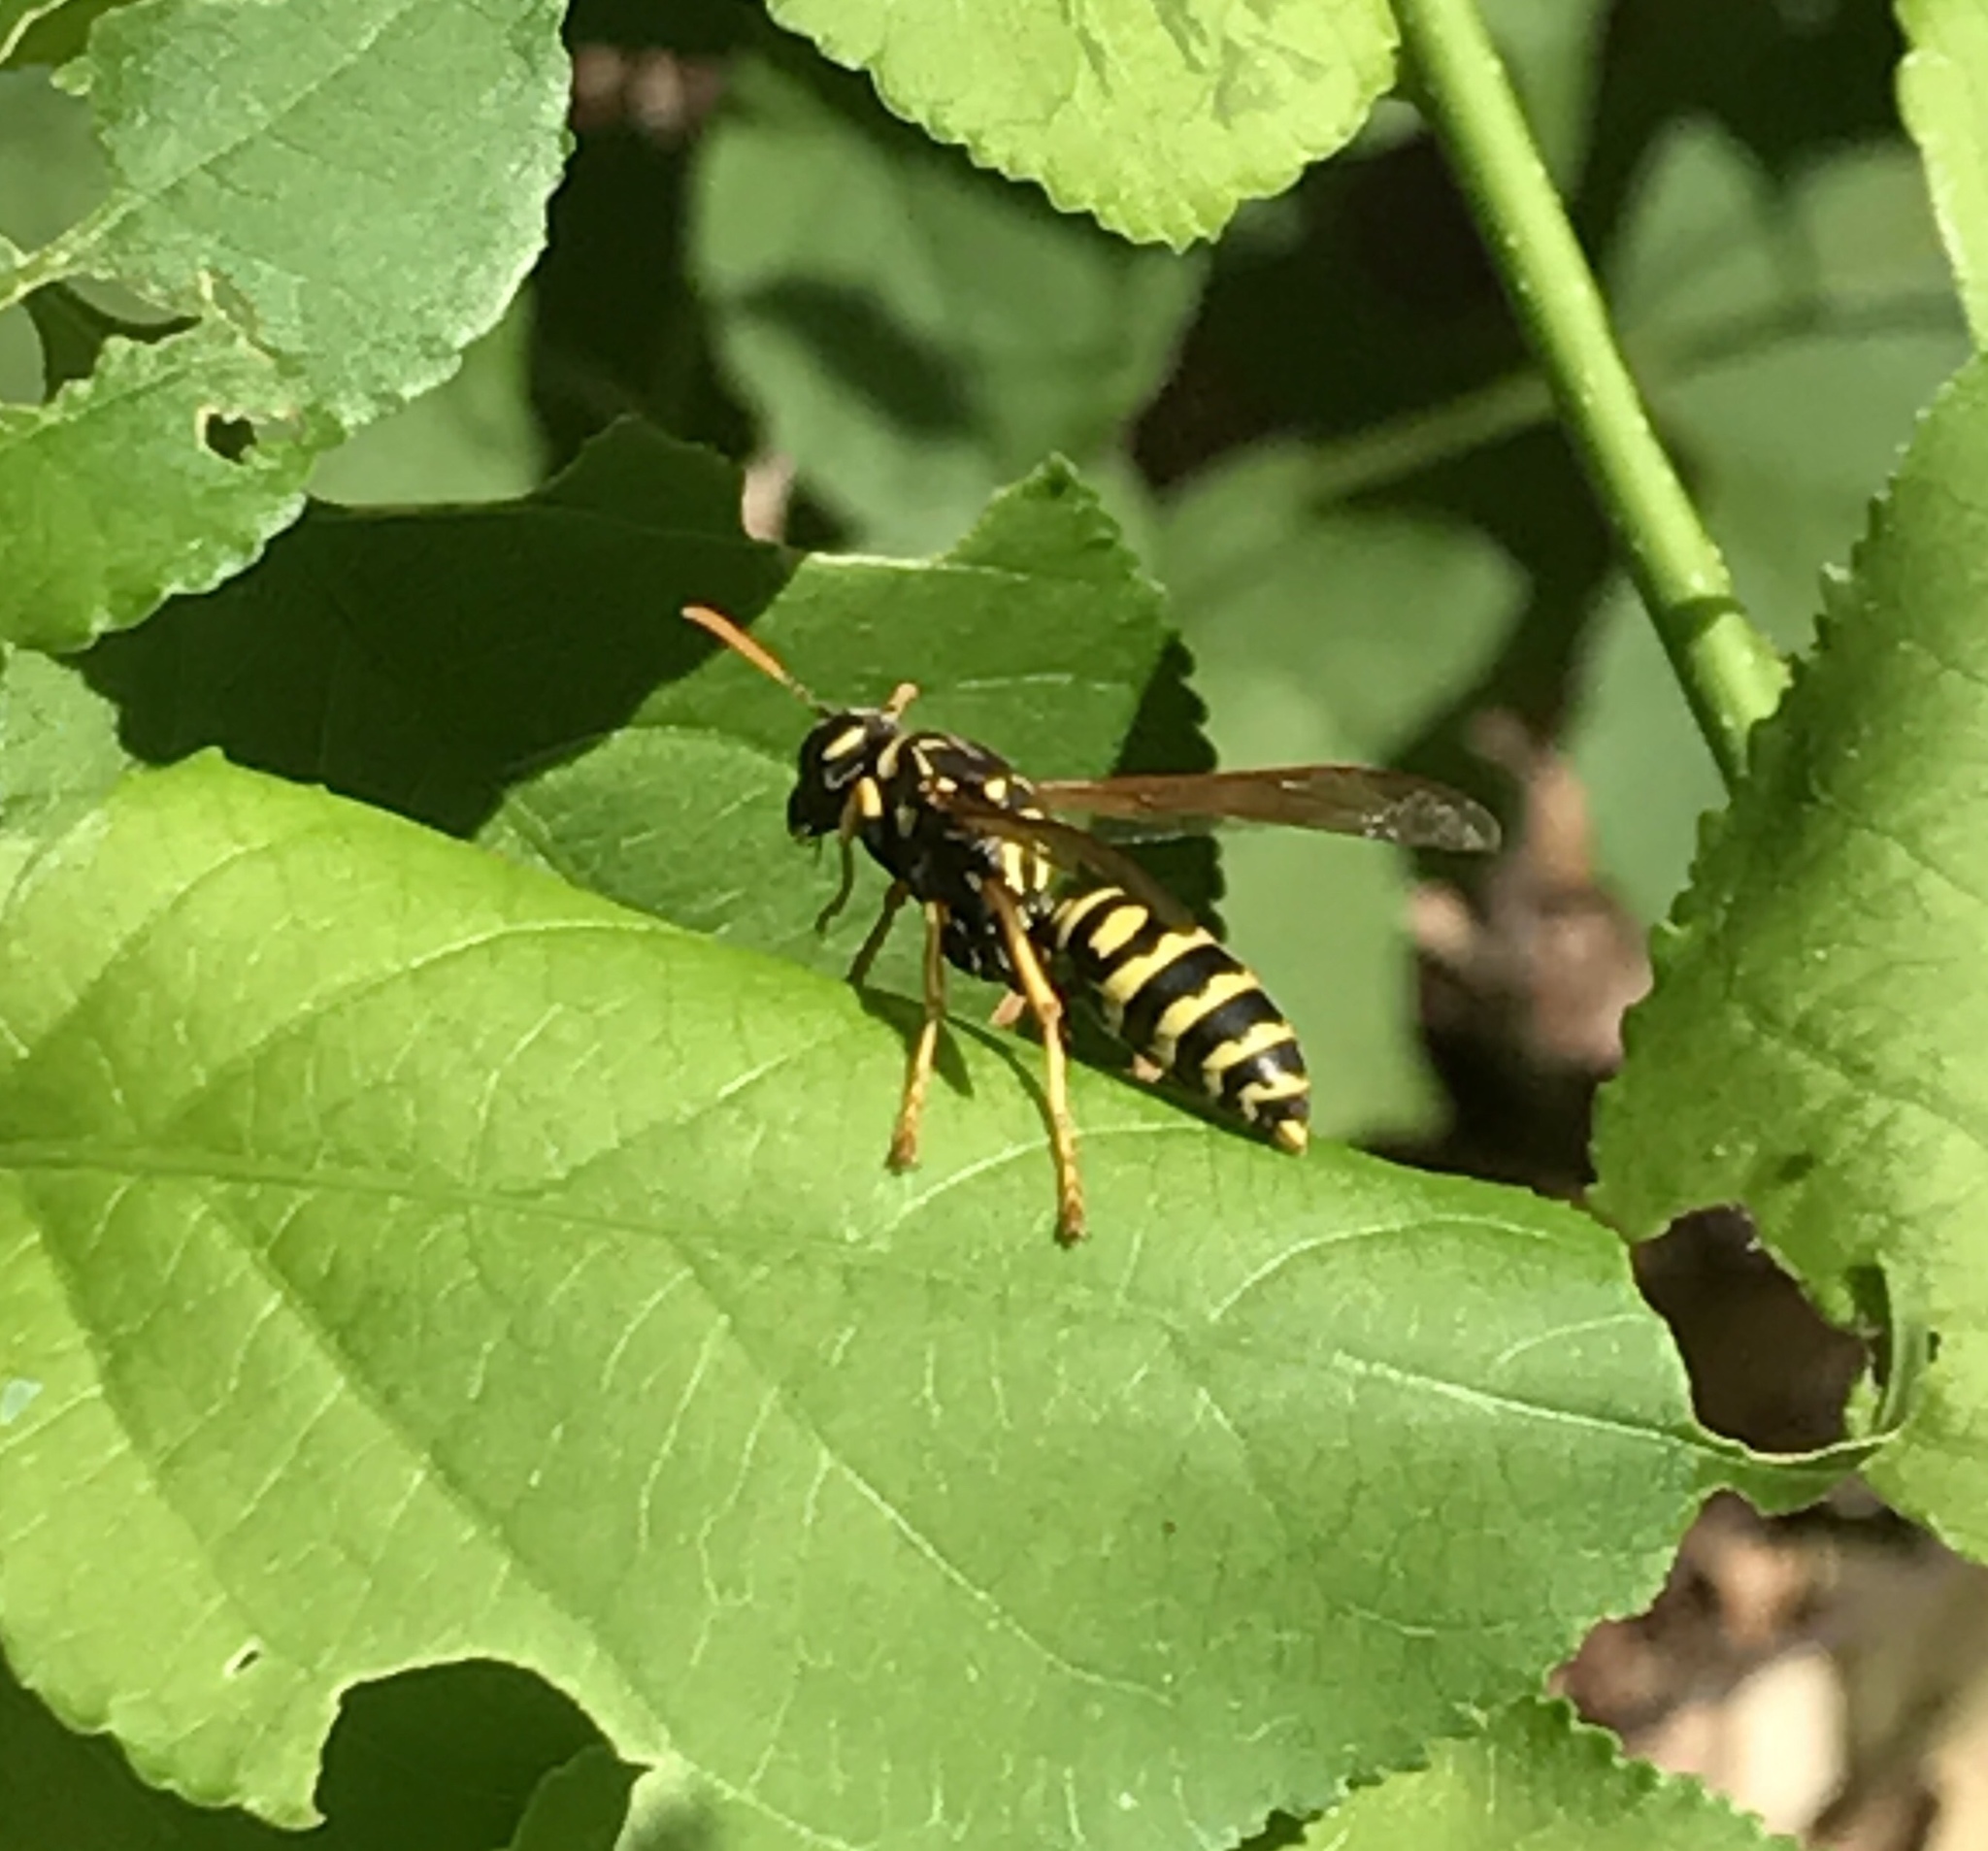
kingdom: Animalia
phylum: Arthropoda
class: Insecta
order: Hymenoptera
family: Eumenidae
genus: Polistes
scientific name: Polistes dominula
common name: Paper wasp
